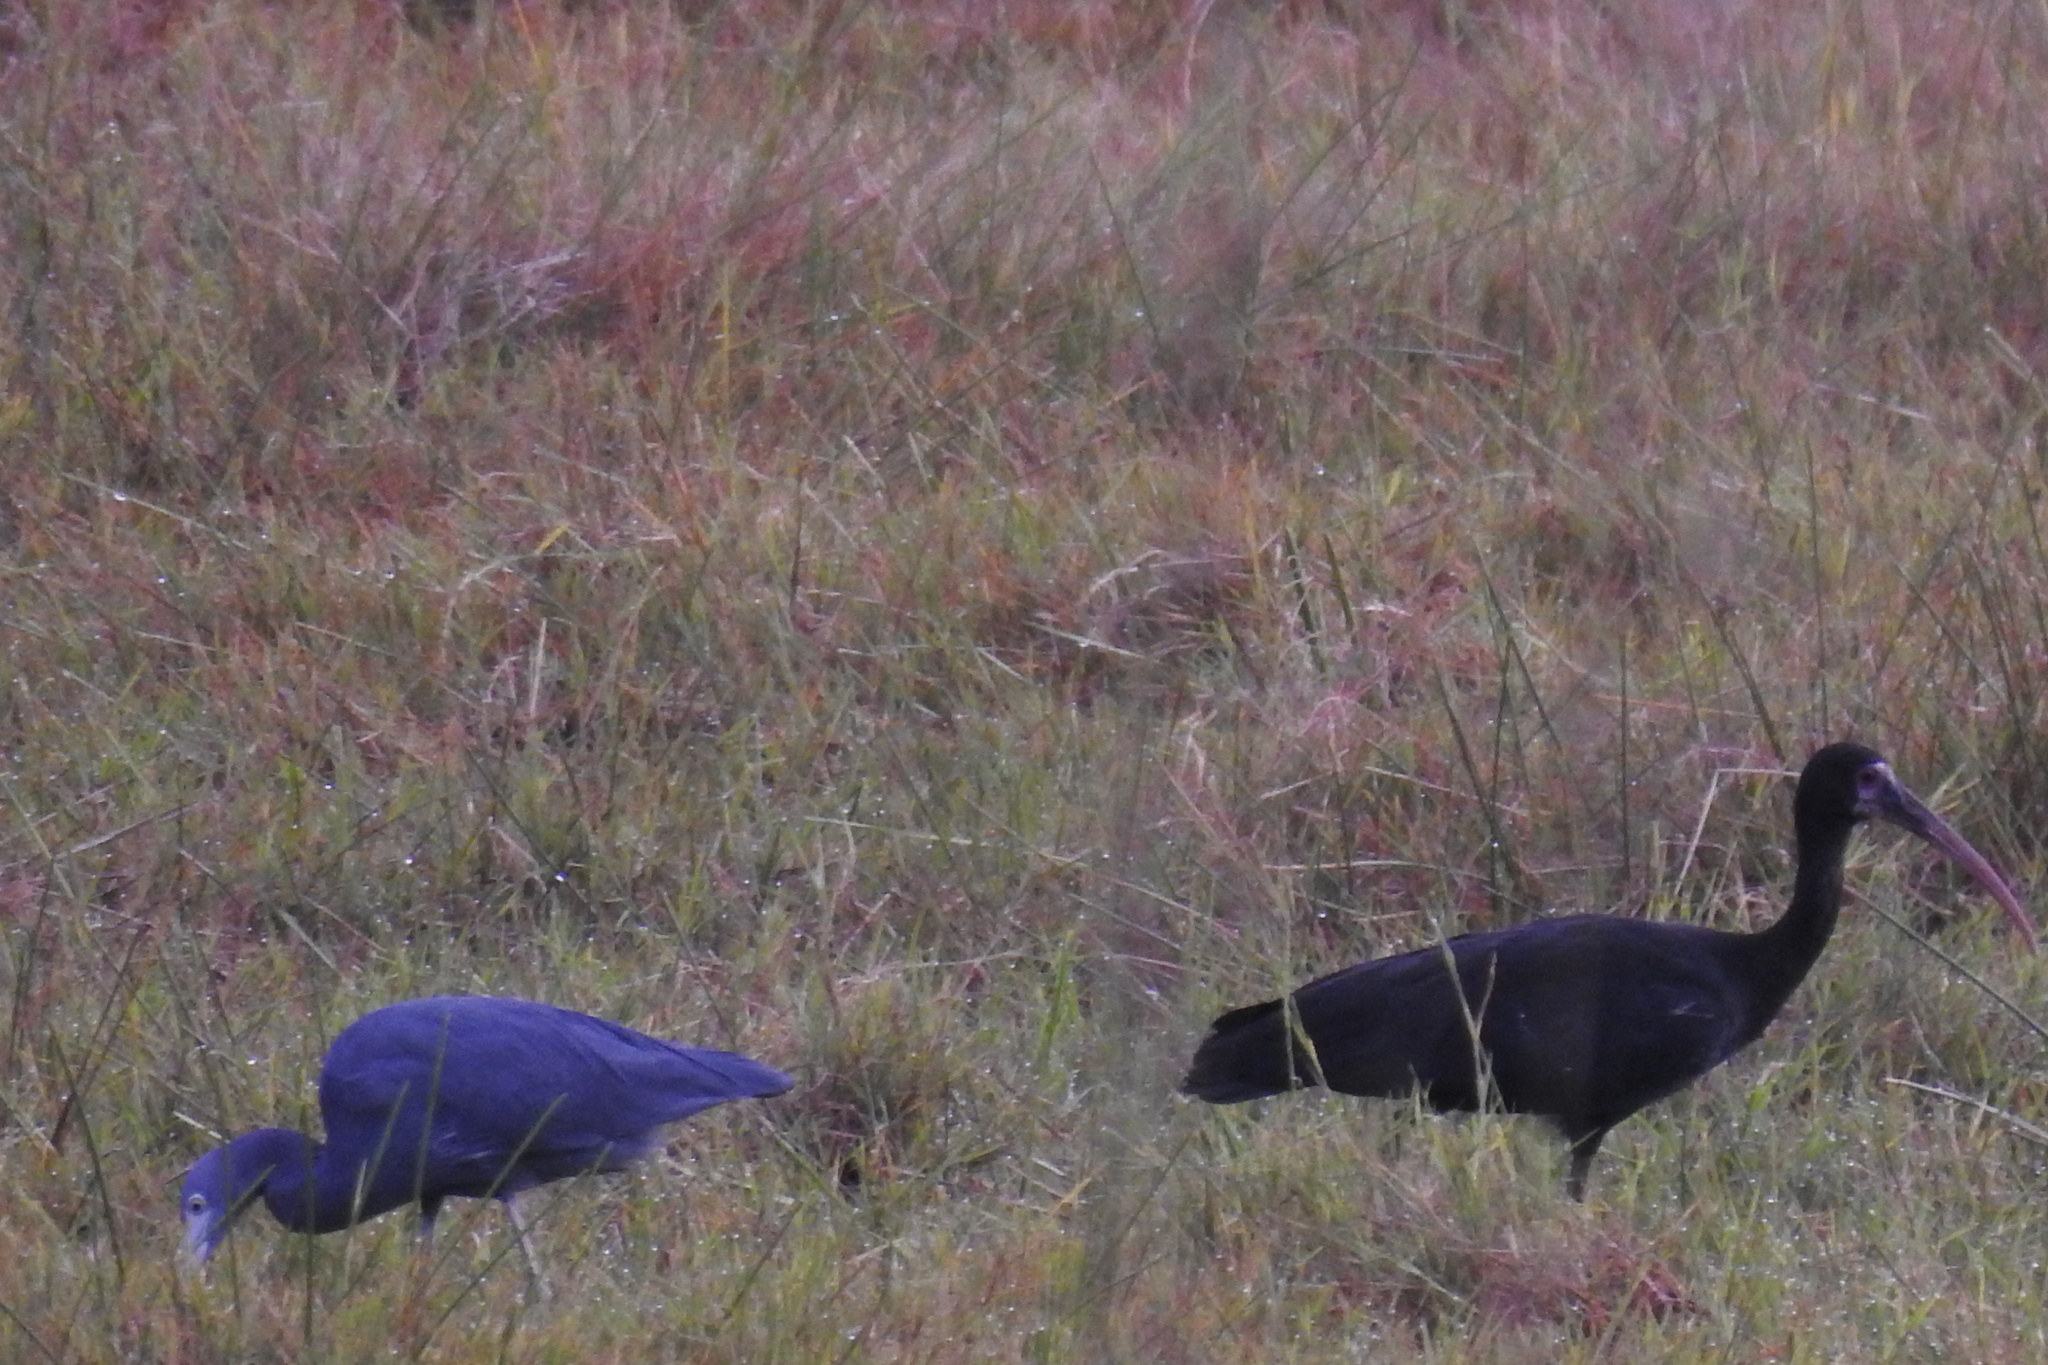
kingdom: Animalia
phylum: Chordata
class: Aves
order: Pelecaniformes
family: Threskiornithidae
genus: Phimosus
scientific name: Phimosus infuscatus
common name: Bare-faced ibis
